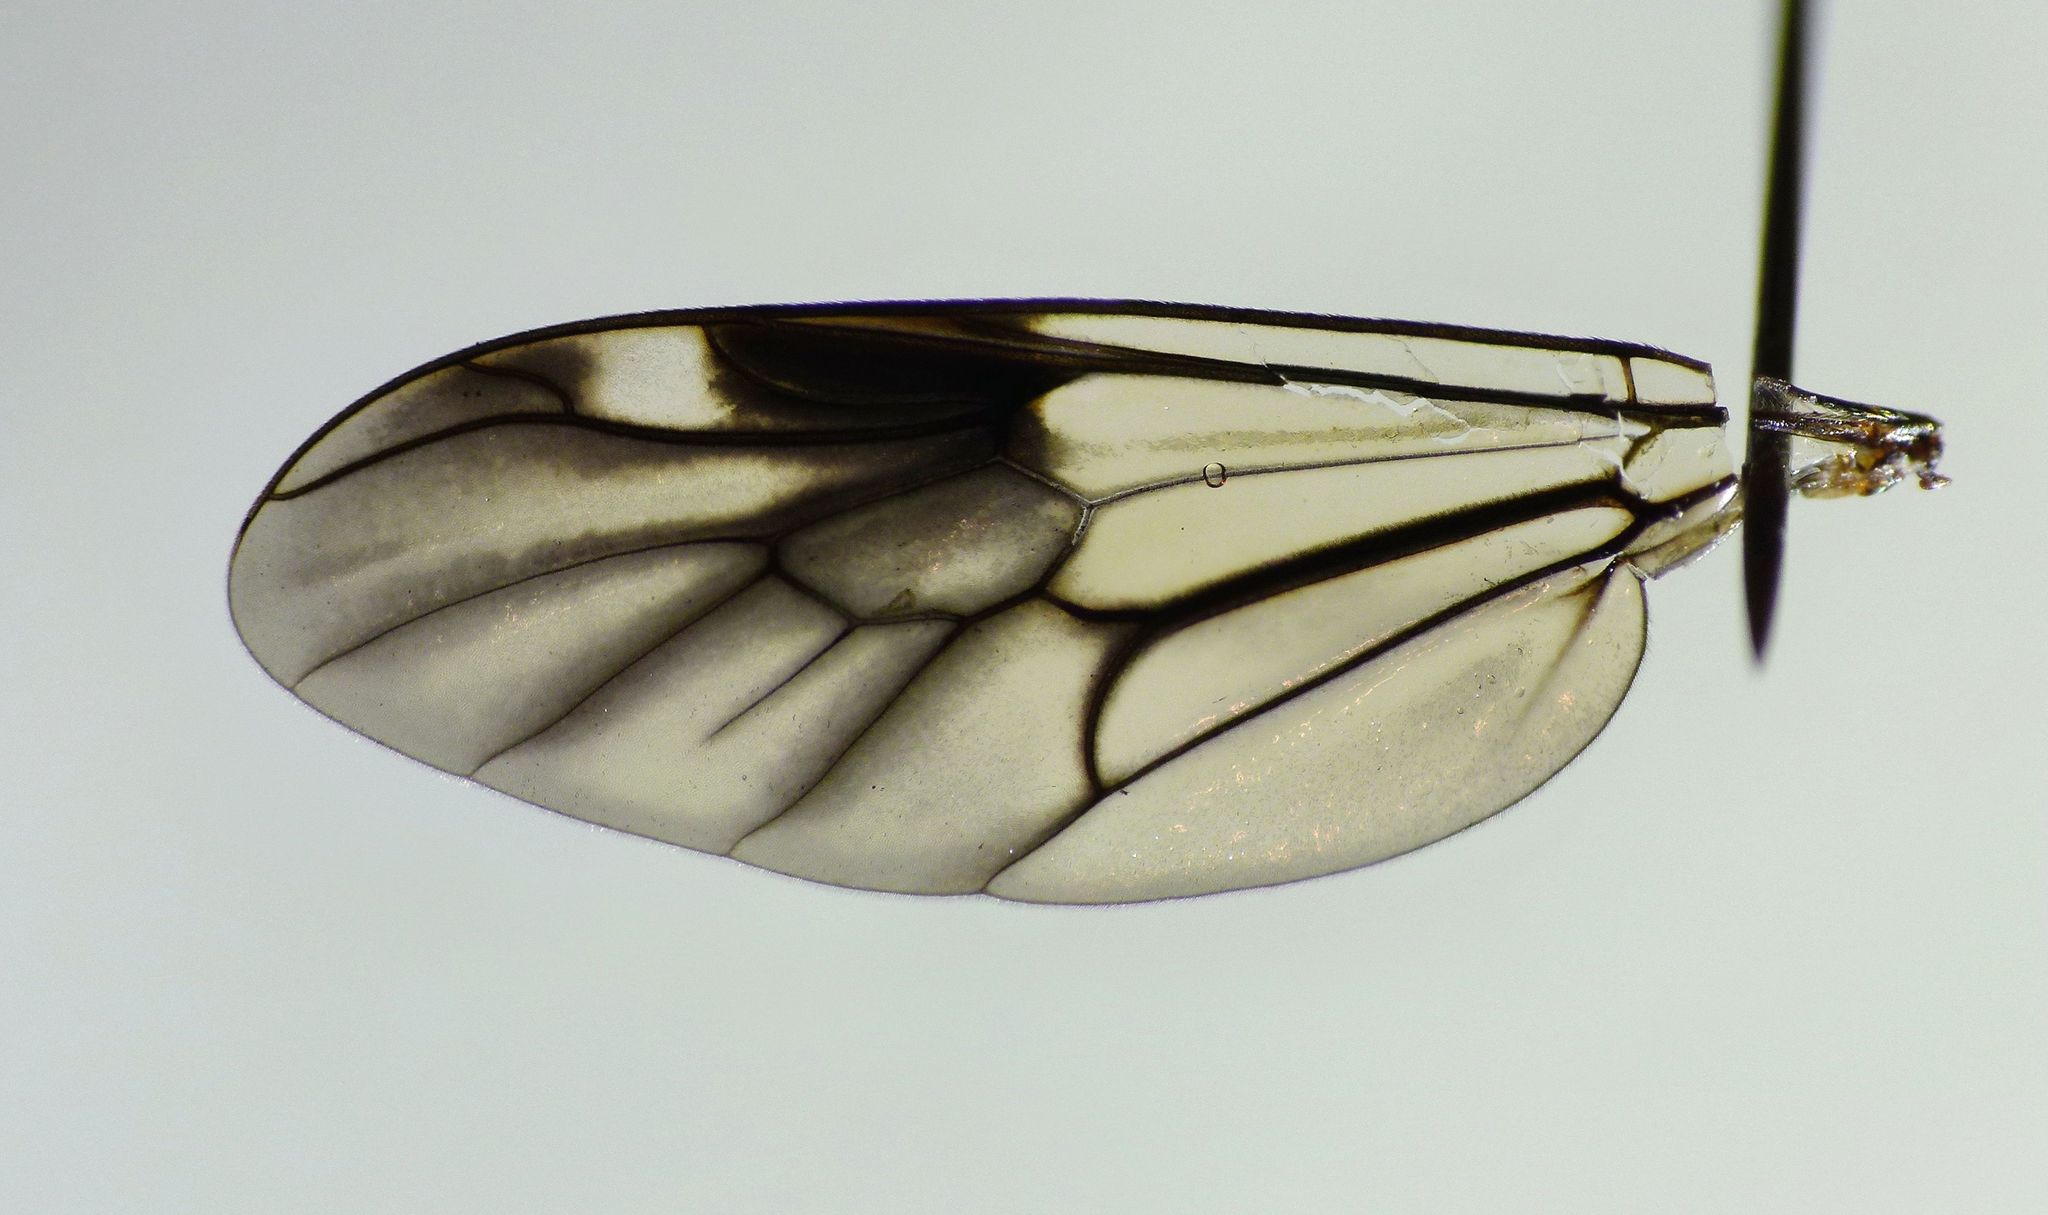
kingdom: Animalia
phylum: Arthropoda
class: Insecta
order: Diptera
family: Stratiomyidae
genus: Exaireta
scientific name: Exaireta spinigera
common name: Blue soldier fly
